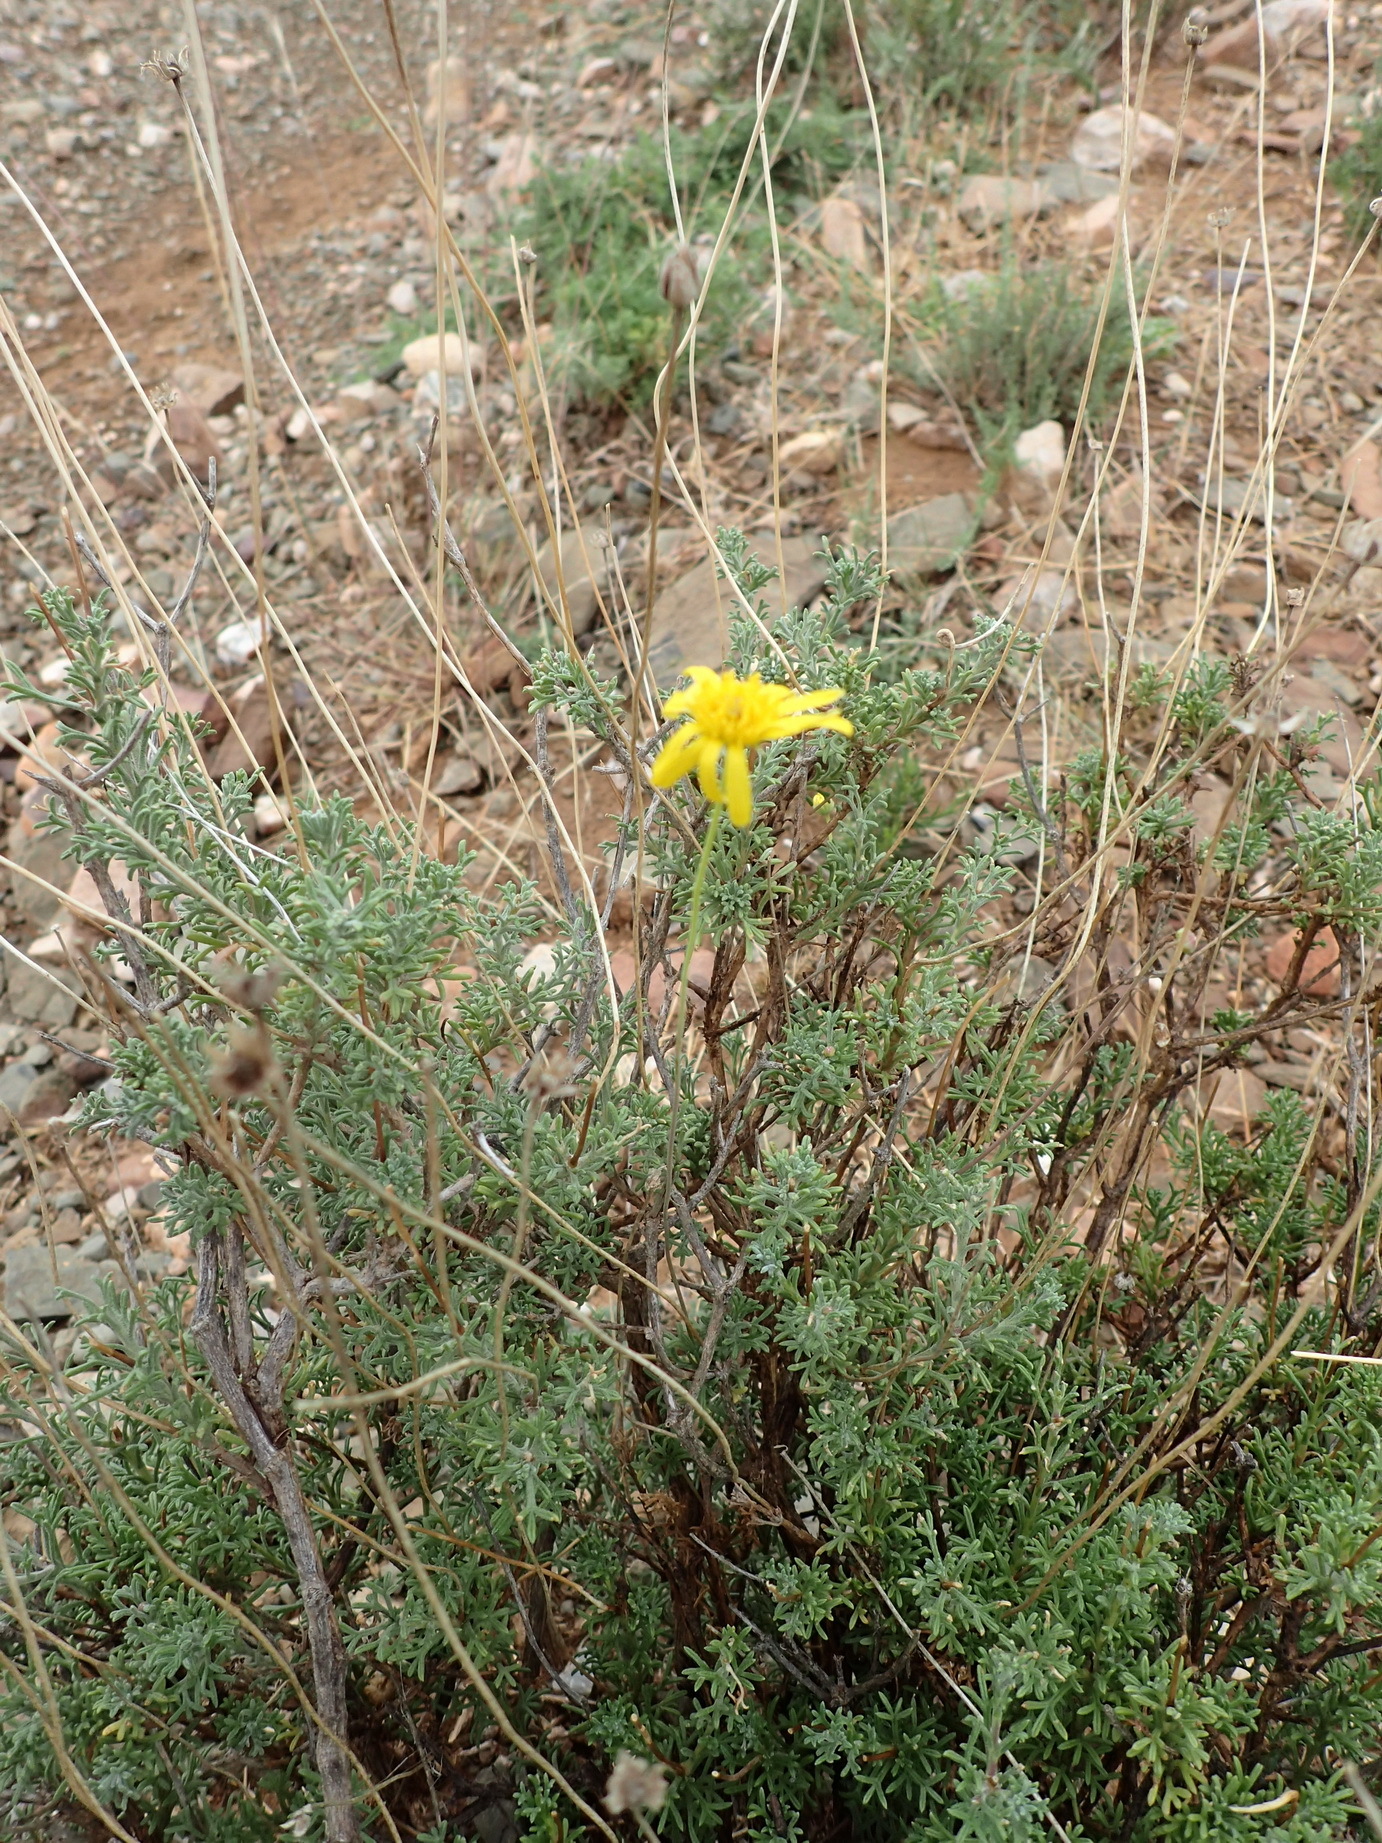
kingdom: Plantae
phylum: Tracheophyta
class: Magnoliopsida
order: Asterales
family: Asteraceae
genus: Euryops
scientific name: Euryops anthemoides
